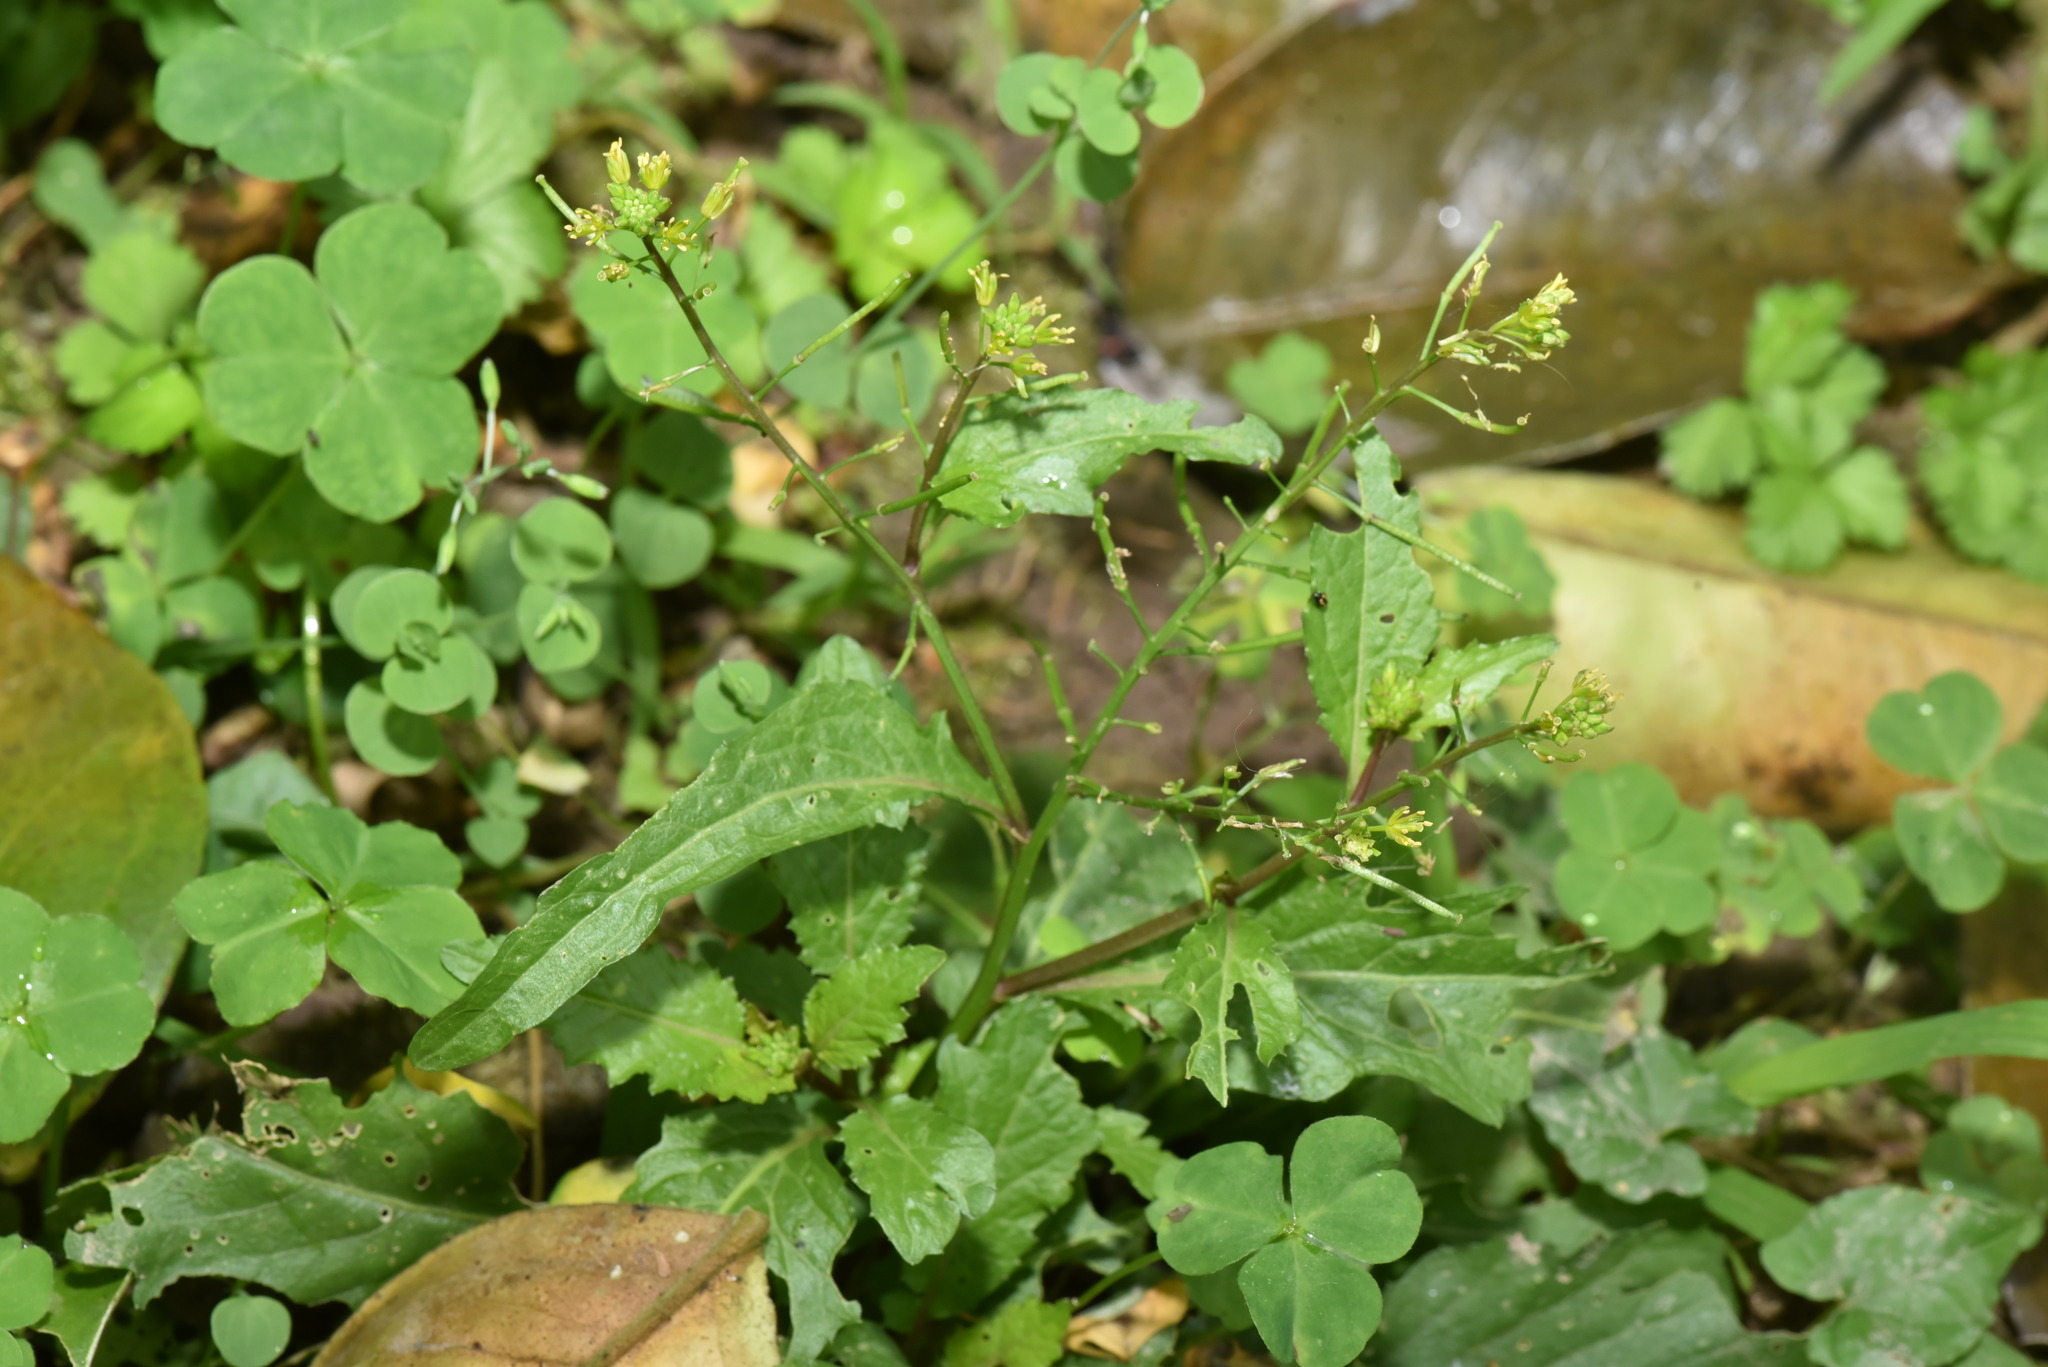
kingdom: Plantae
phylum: Tracheophyta
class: Magnoliopsida
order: Brassicales
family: Brassicaceae
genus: Rorippa
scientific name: Rorippa indica
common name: Variableleaf yellowcress
